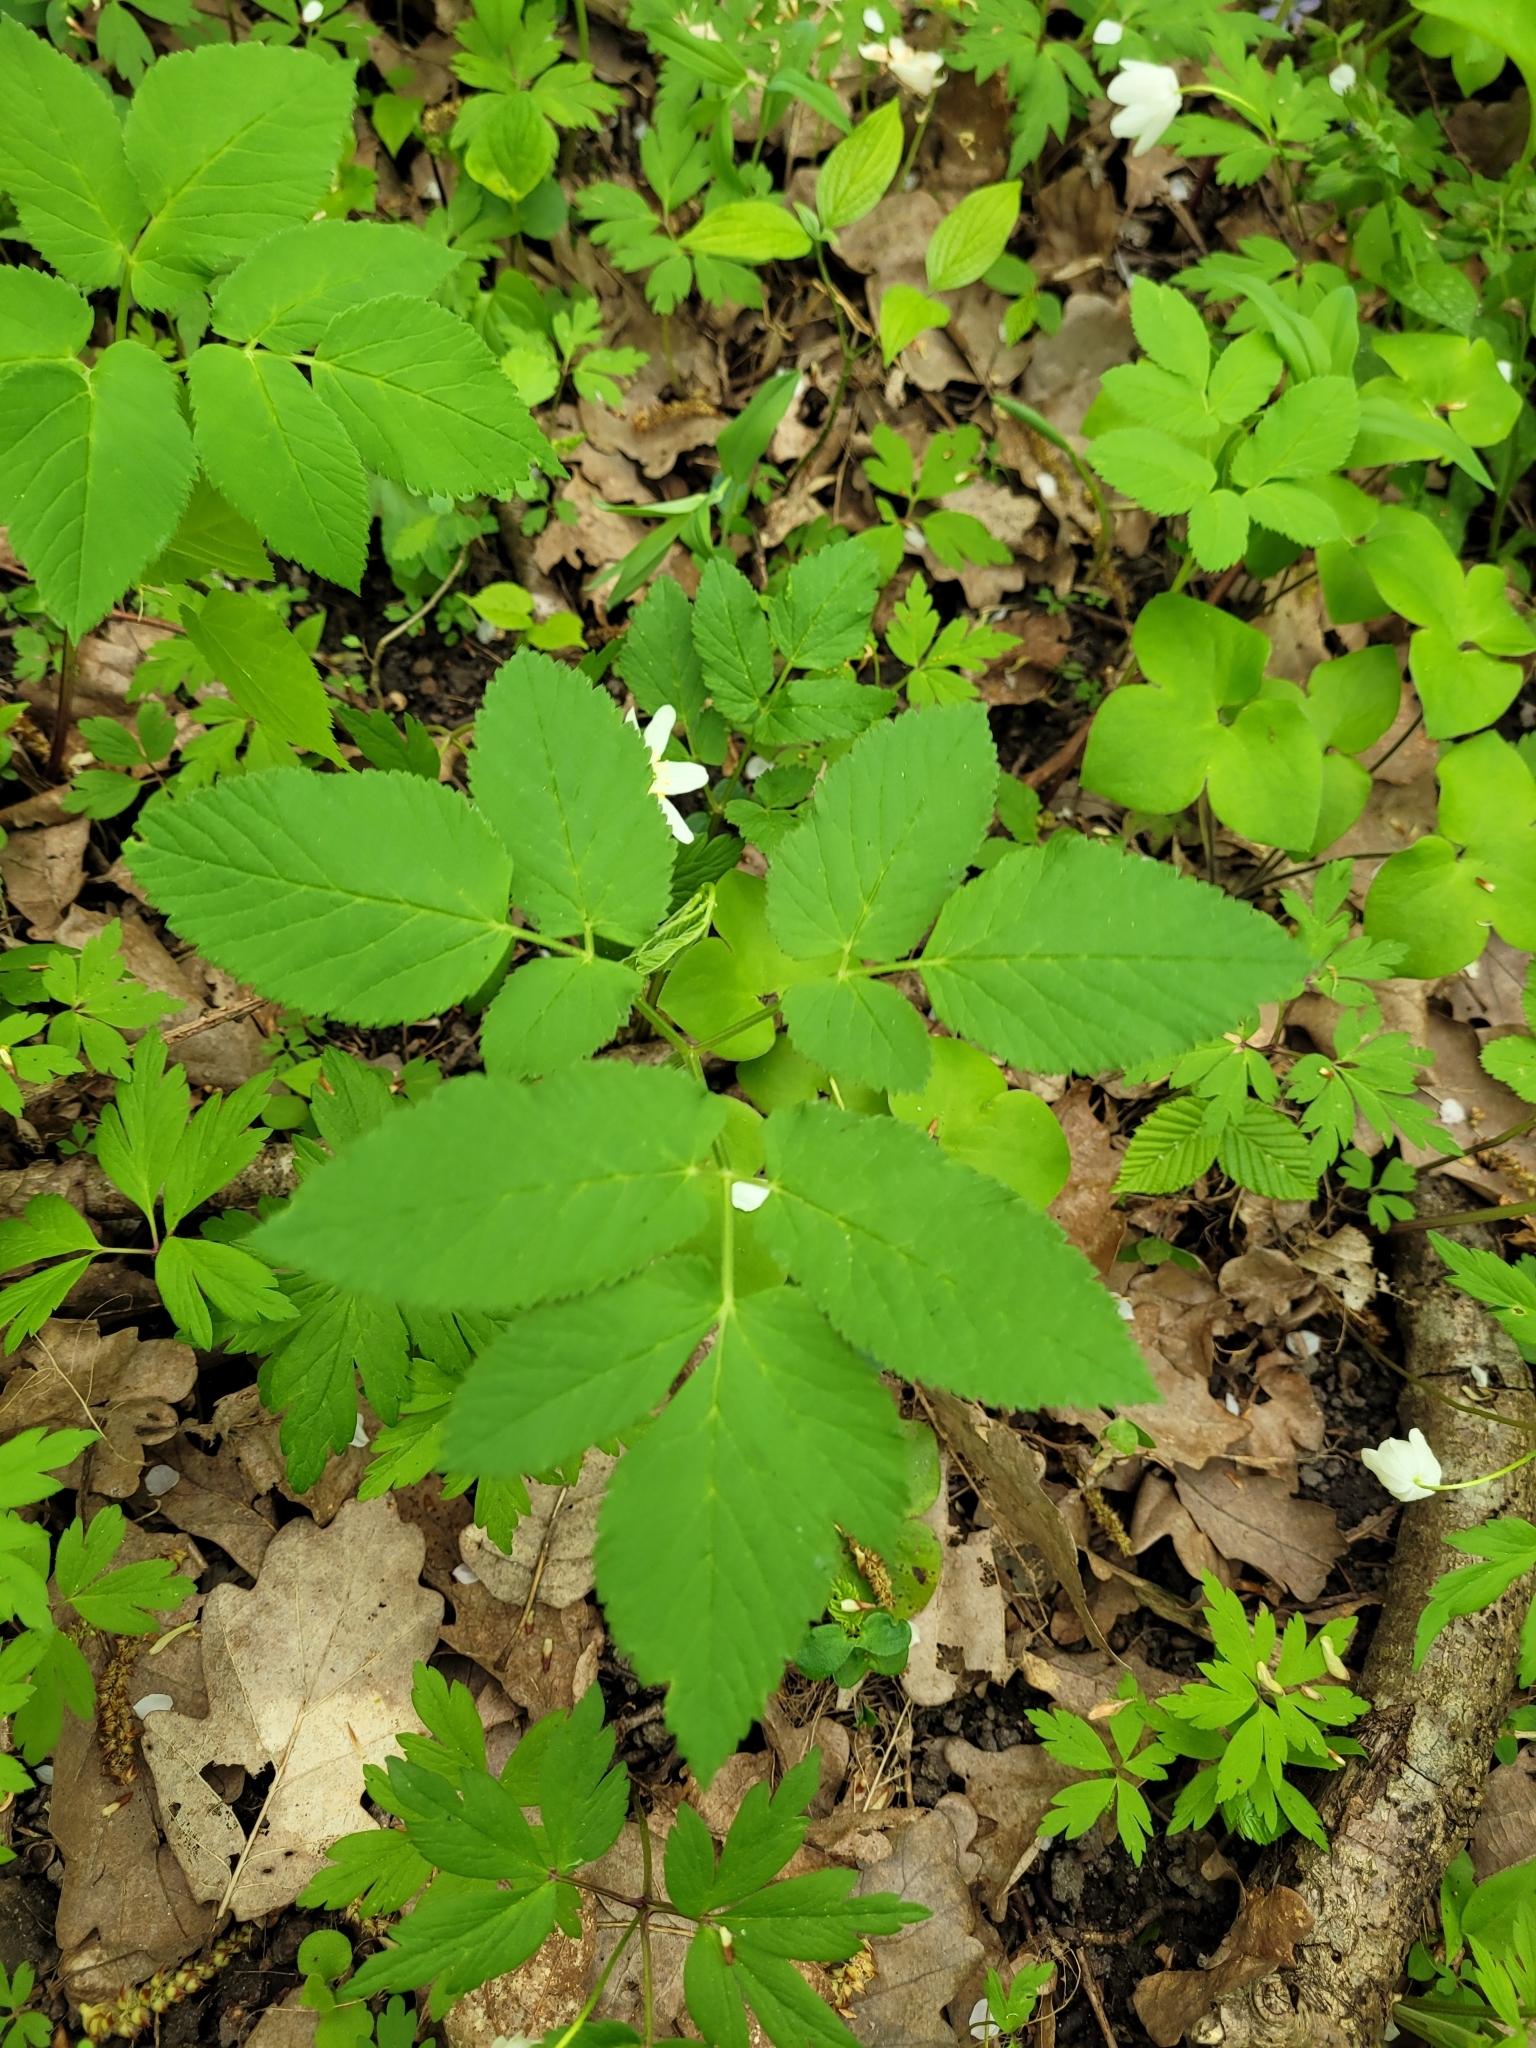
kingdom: Plantae
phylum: Tracheophyta
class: Magnoliopsida
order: Apiales
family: Apiaceae
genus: Aegopodium
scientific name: Aegopodium podagraria
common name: Ground-elder
